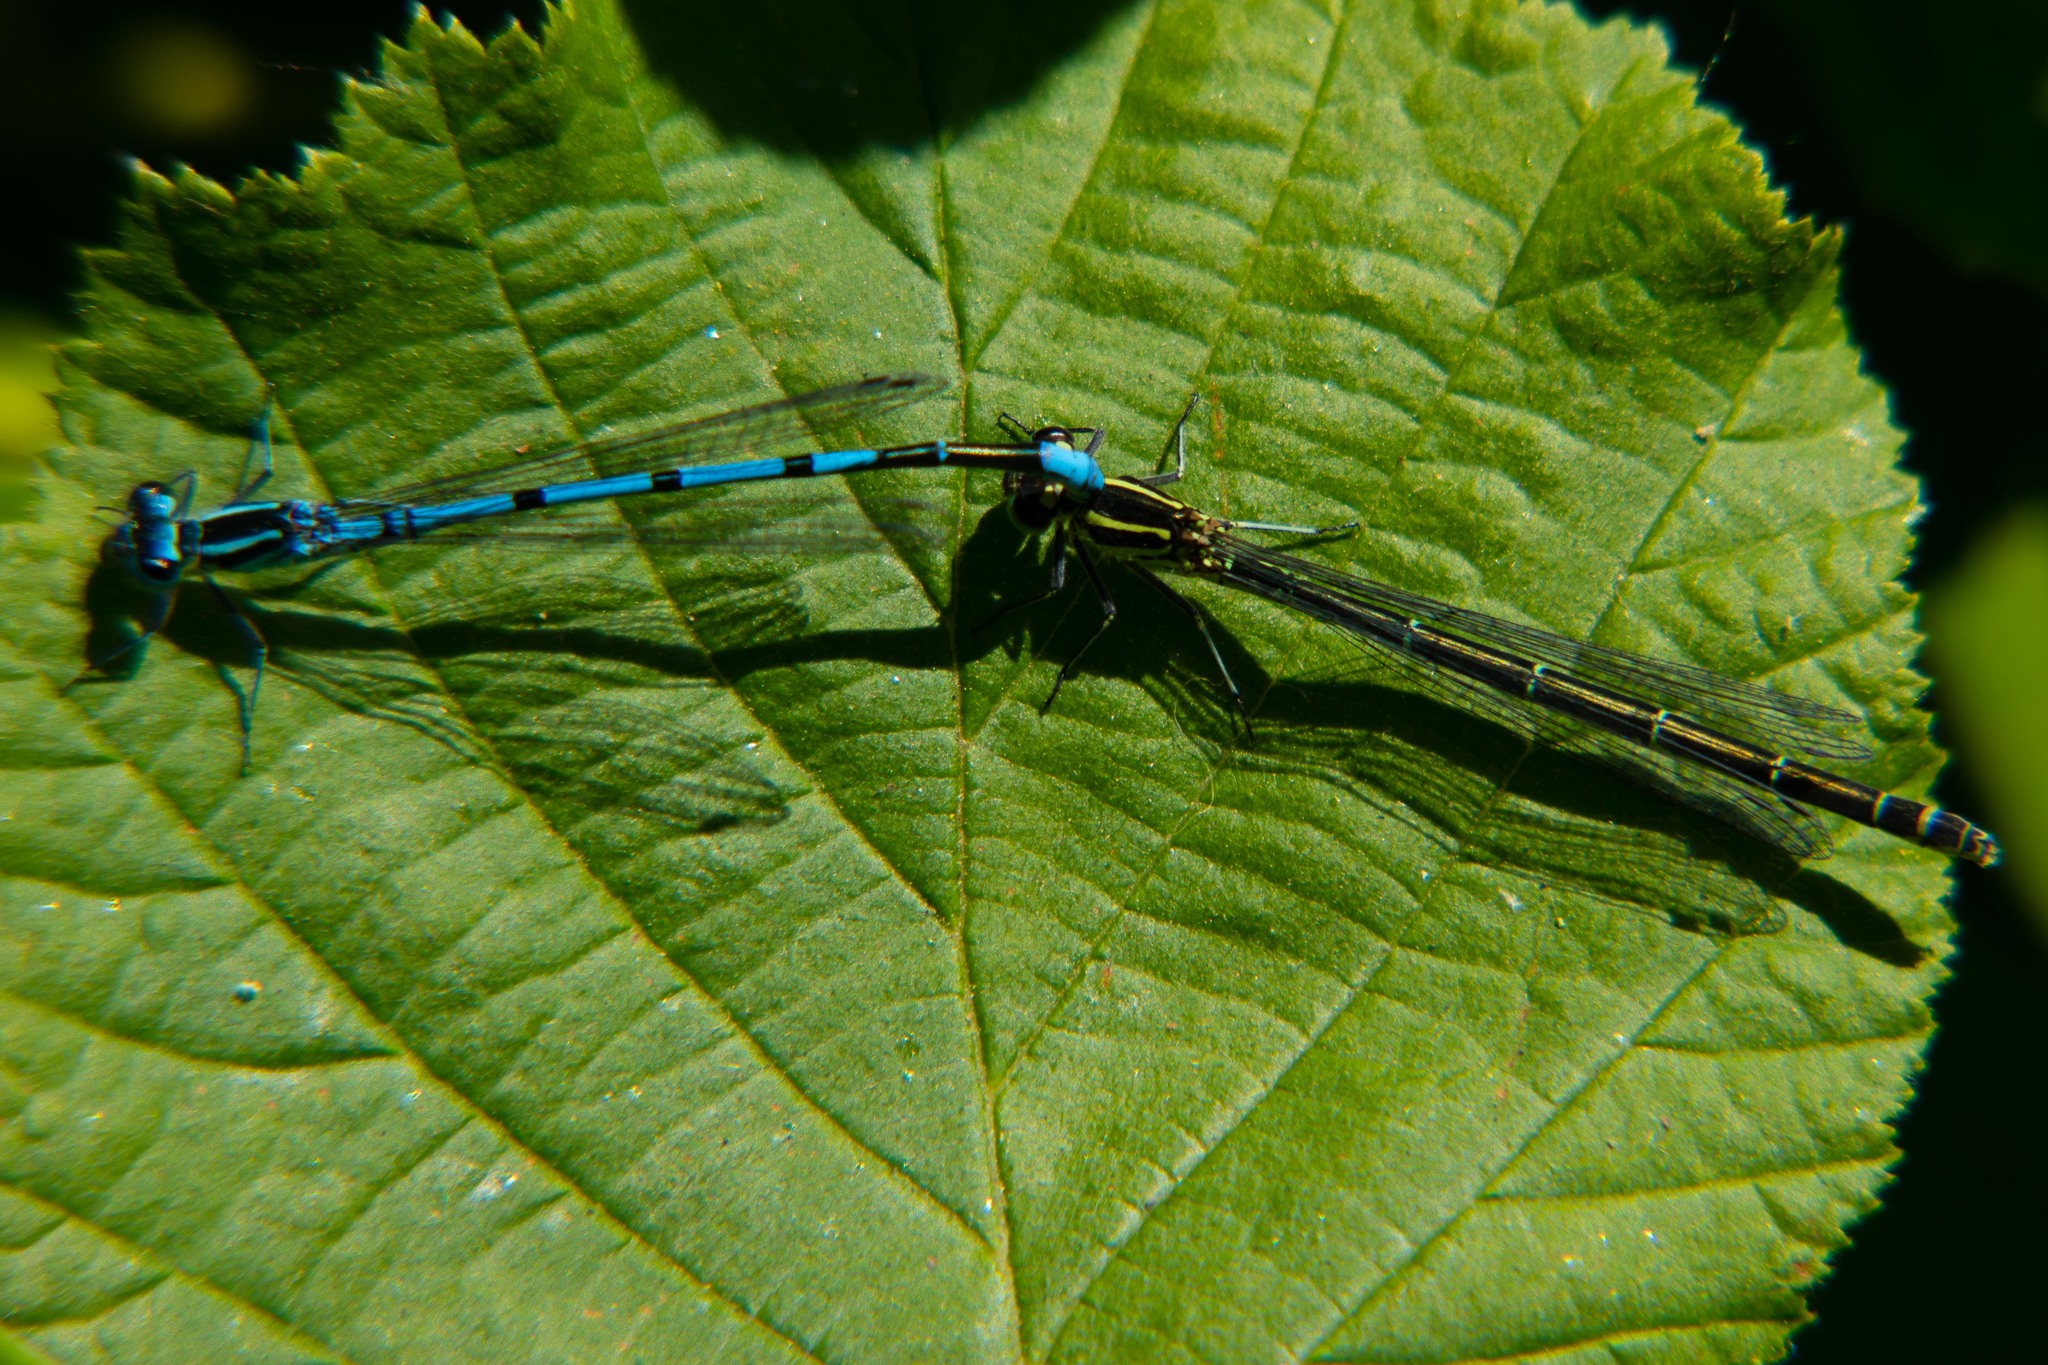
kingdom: Animalia
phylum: Arthropoda
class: Insecta
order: Odonata
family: Coenagrionidae
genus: Coenagrion
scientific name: Coenagrion puella
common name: Azure damselfly
